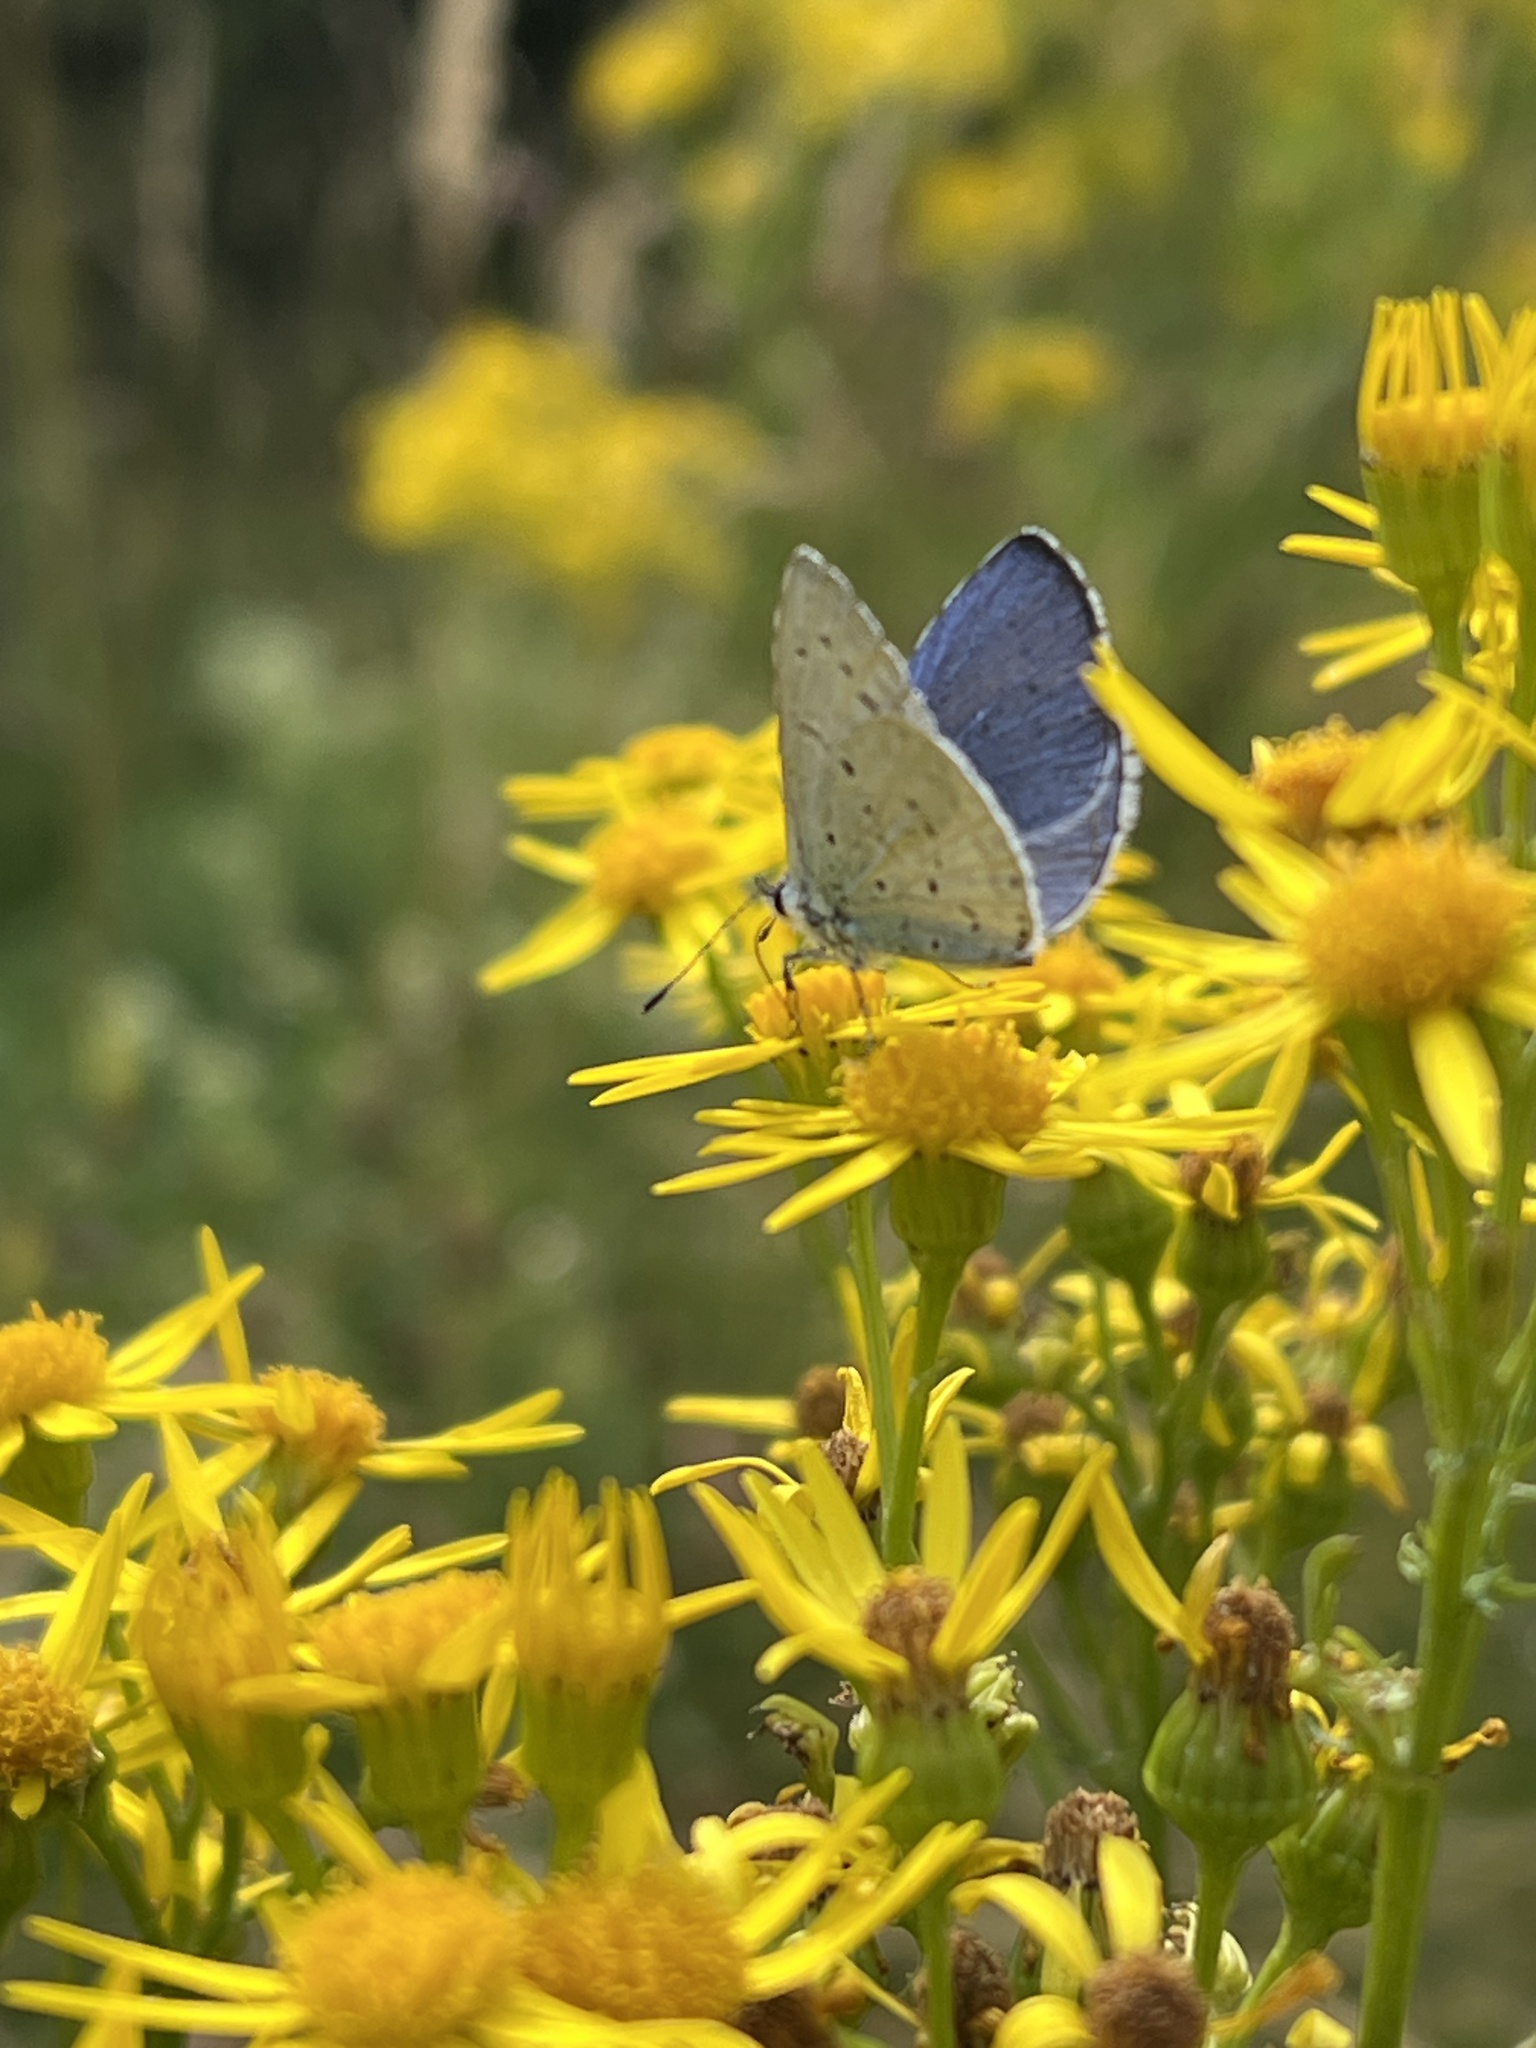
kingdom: Animalia
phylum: Arthropoda
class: Insecta
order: Lepidoptera
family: Lycaenidae
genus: Celastrina
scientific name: Celastrina argiolus
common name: Holly blue
